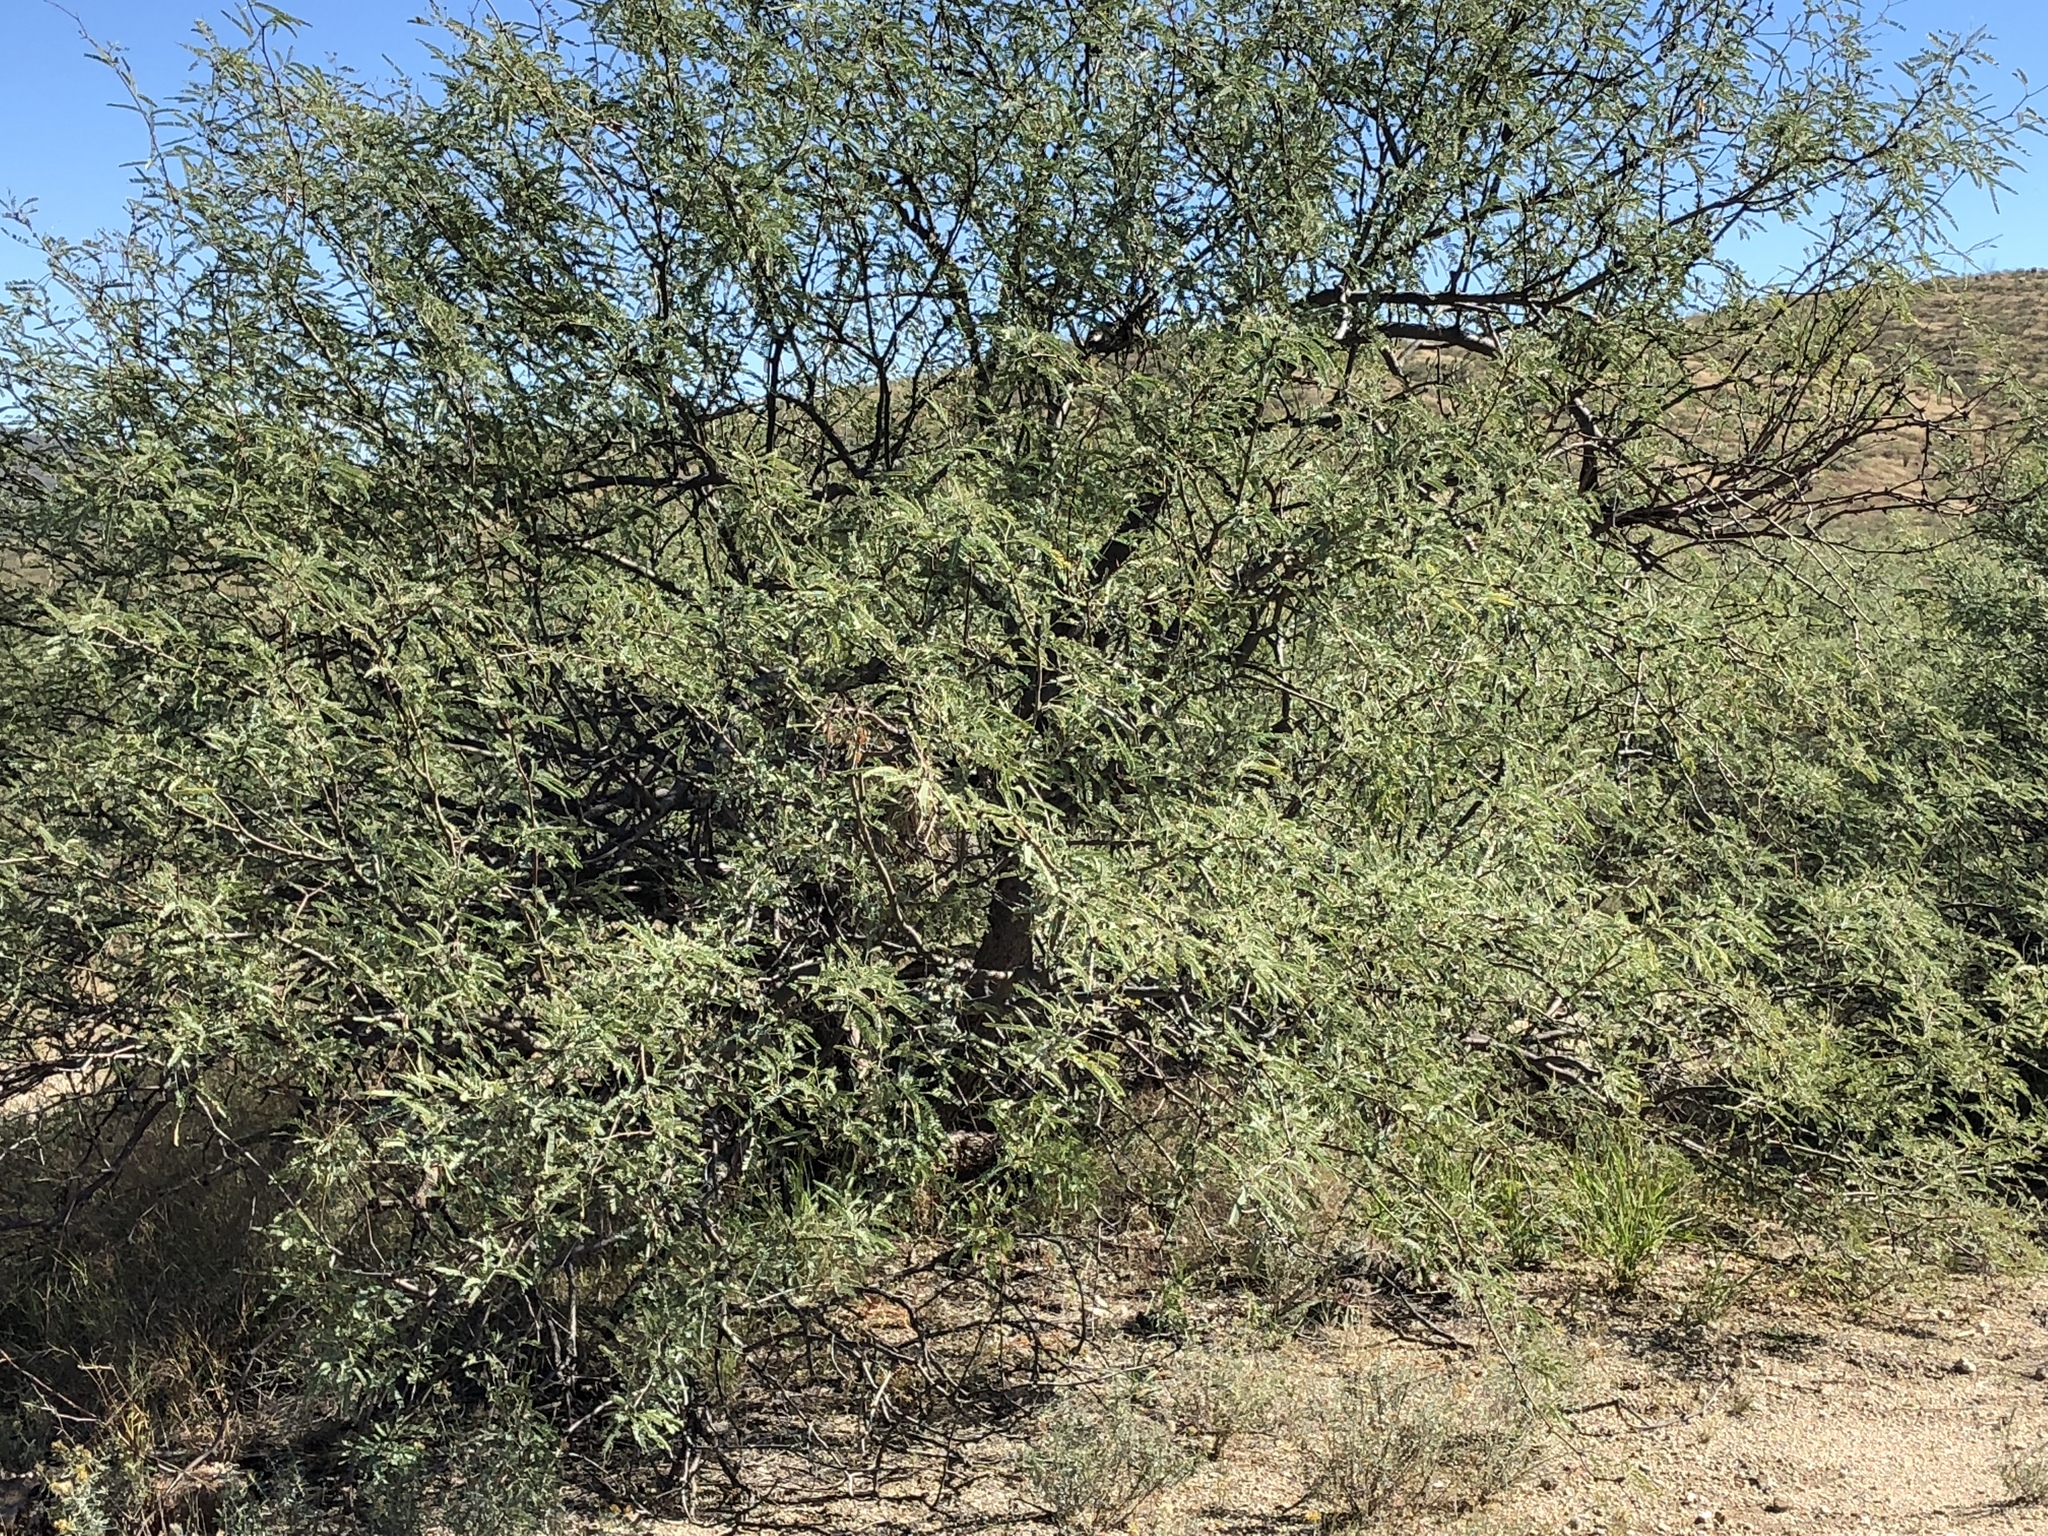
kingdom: Plantae
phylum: Tracheophyta
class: Magnoliopsida
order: Fabales
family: Fabaceae
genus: Prosopis
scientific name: Prosopis velutina
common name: Velvet mesquite
